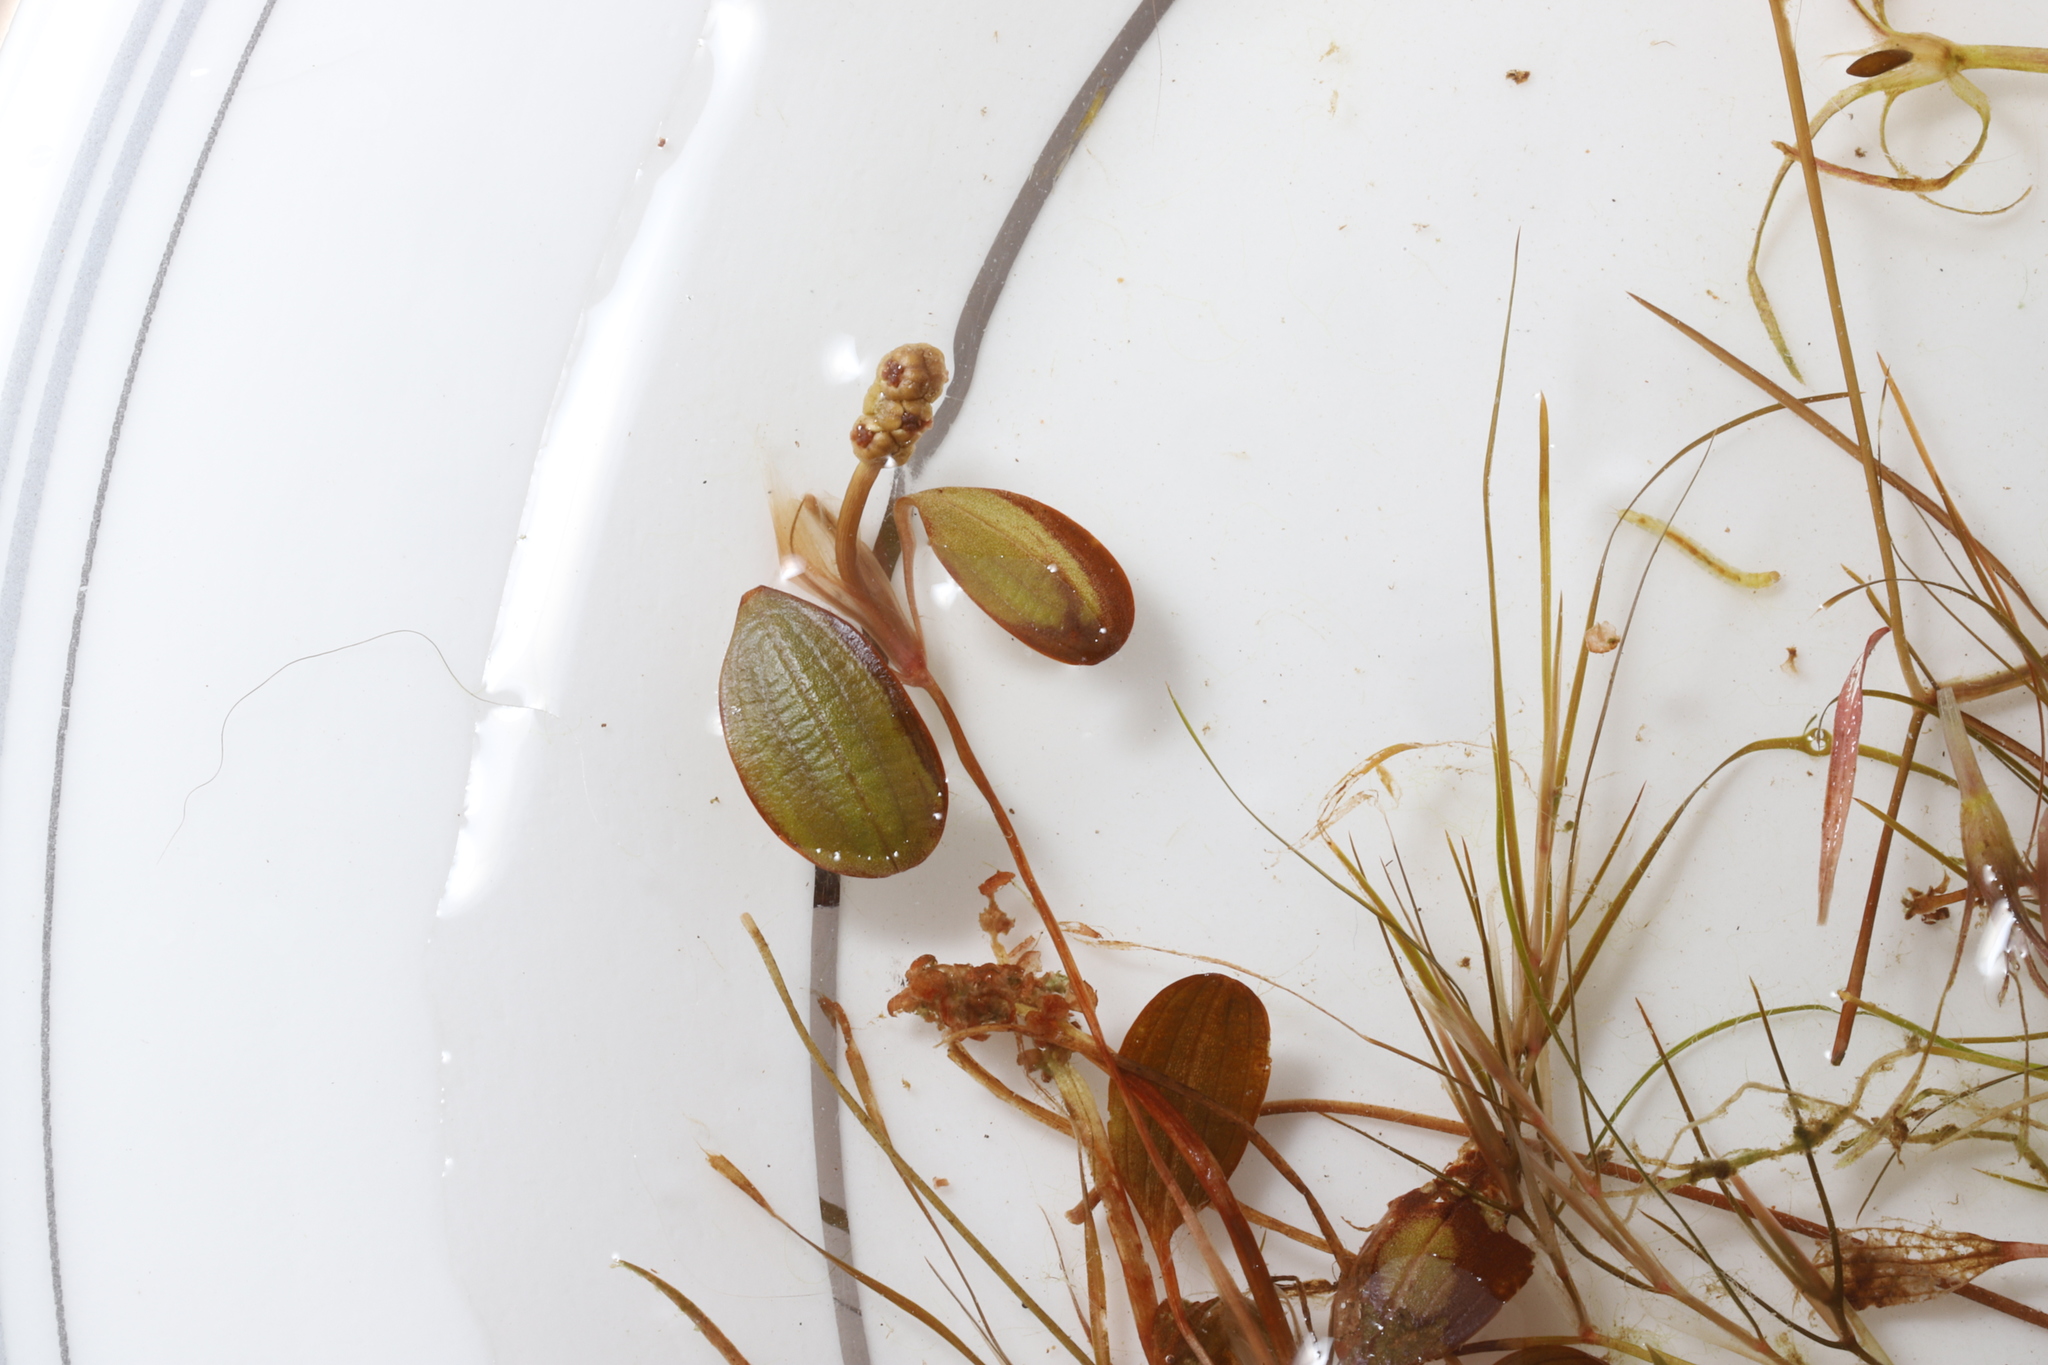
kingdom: Plantae
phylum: Tracheophyta
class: Liliopsida
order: Alismatales
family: Potamogetonaceae
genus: Potamogeton
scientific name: Potamogeton vaseyi
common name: Vasey's pondweed
